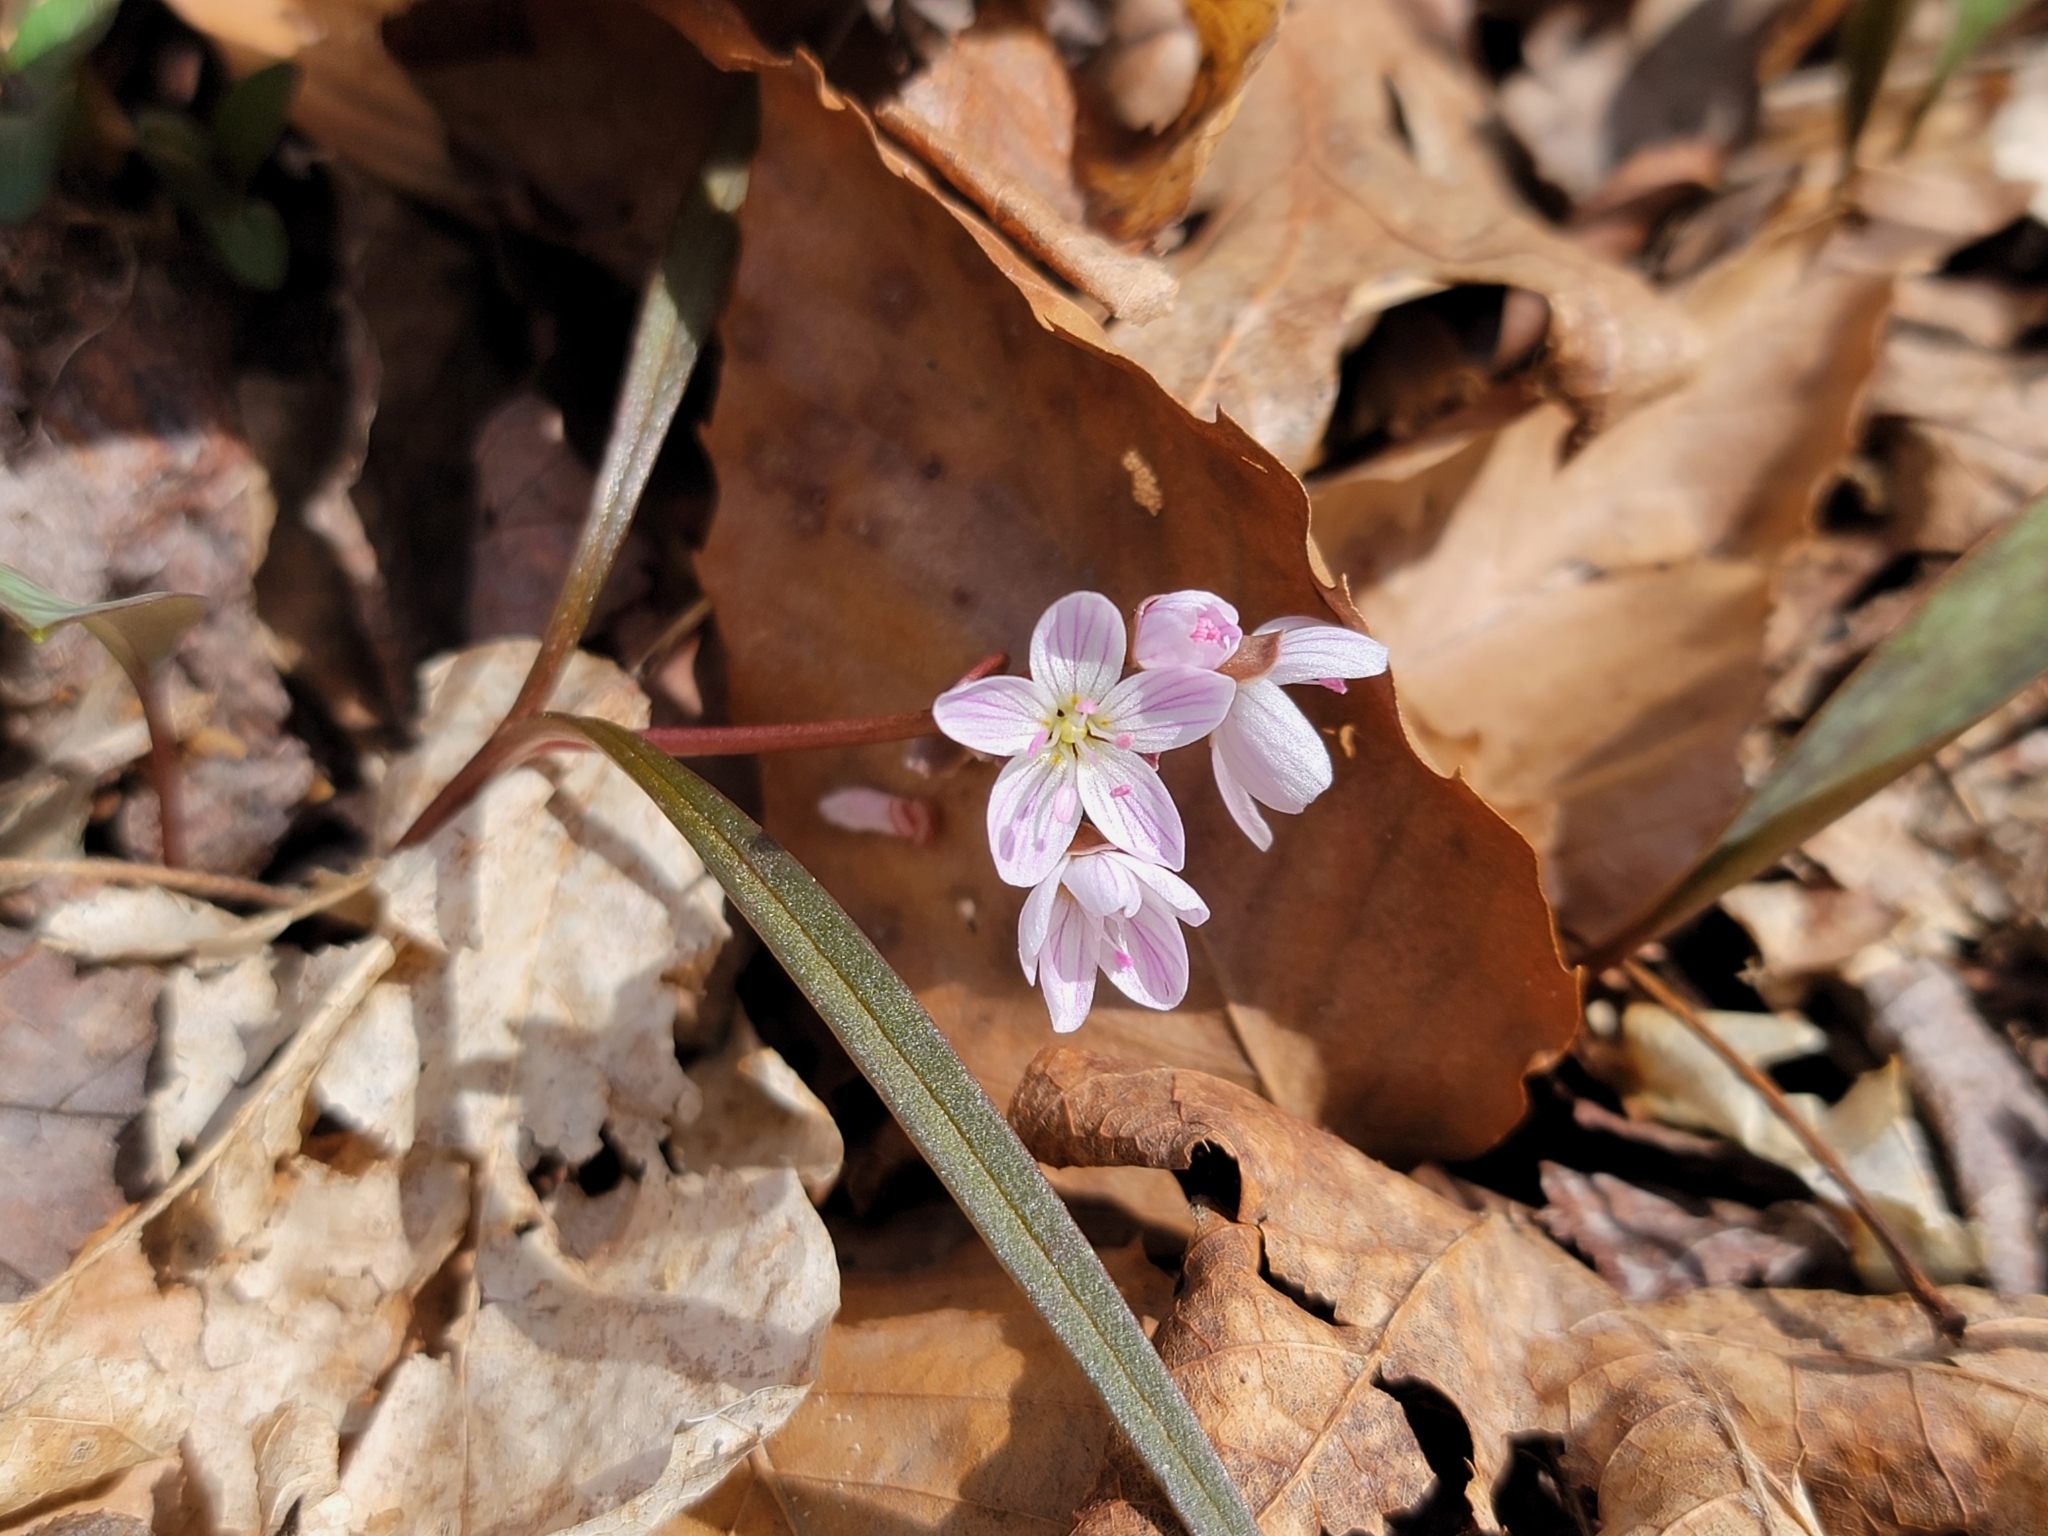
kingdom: Plantae
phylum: Tracheophyta
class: Magnoliopsida
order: Caryophyllales
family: Montiaceae
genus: Claytonia
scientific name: Claytonia virginica
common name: Virginia springbeauty
